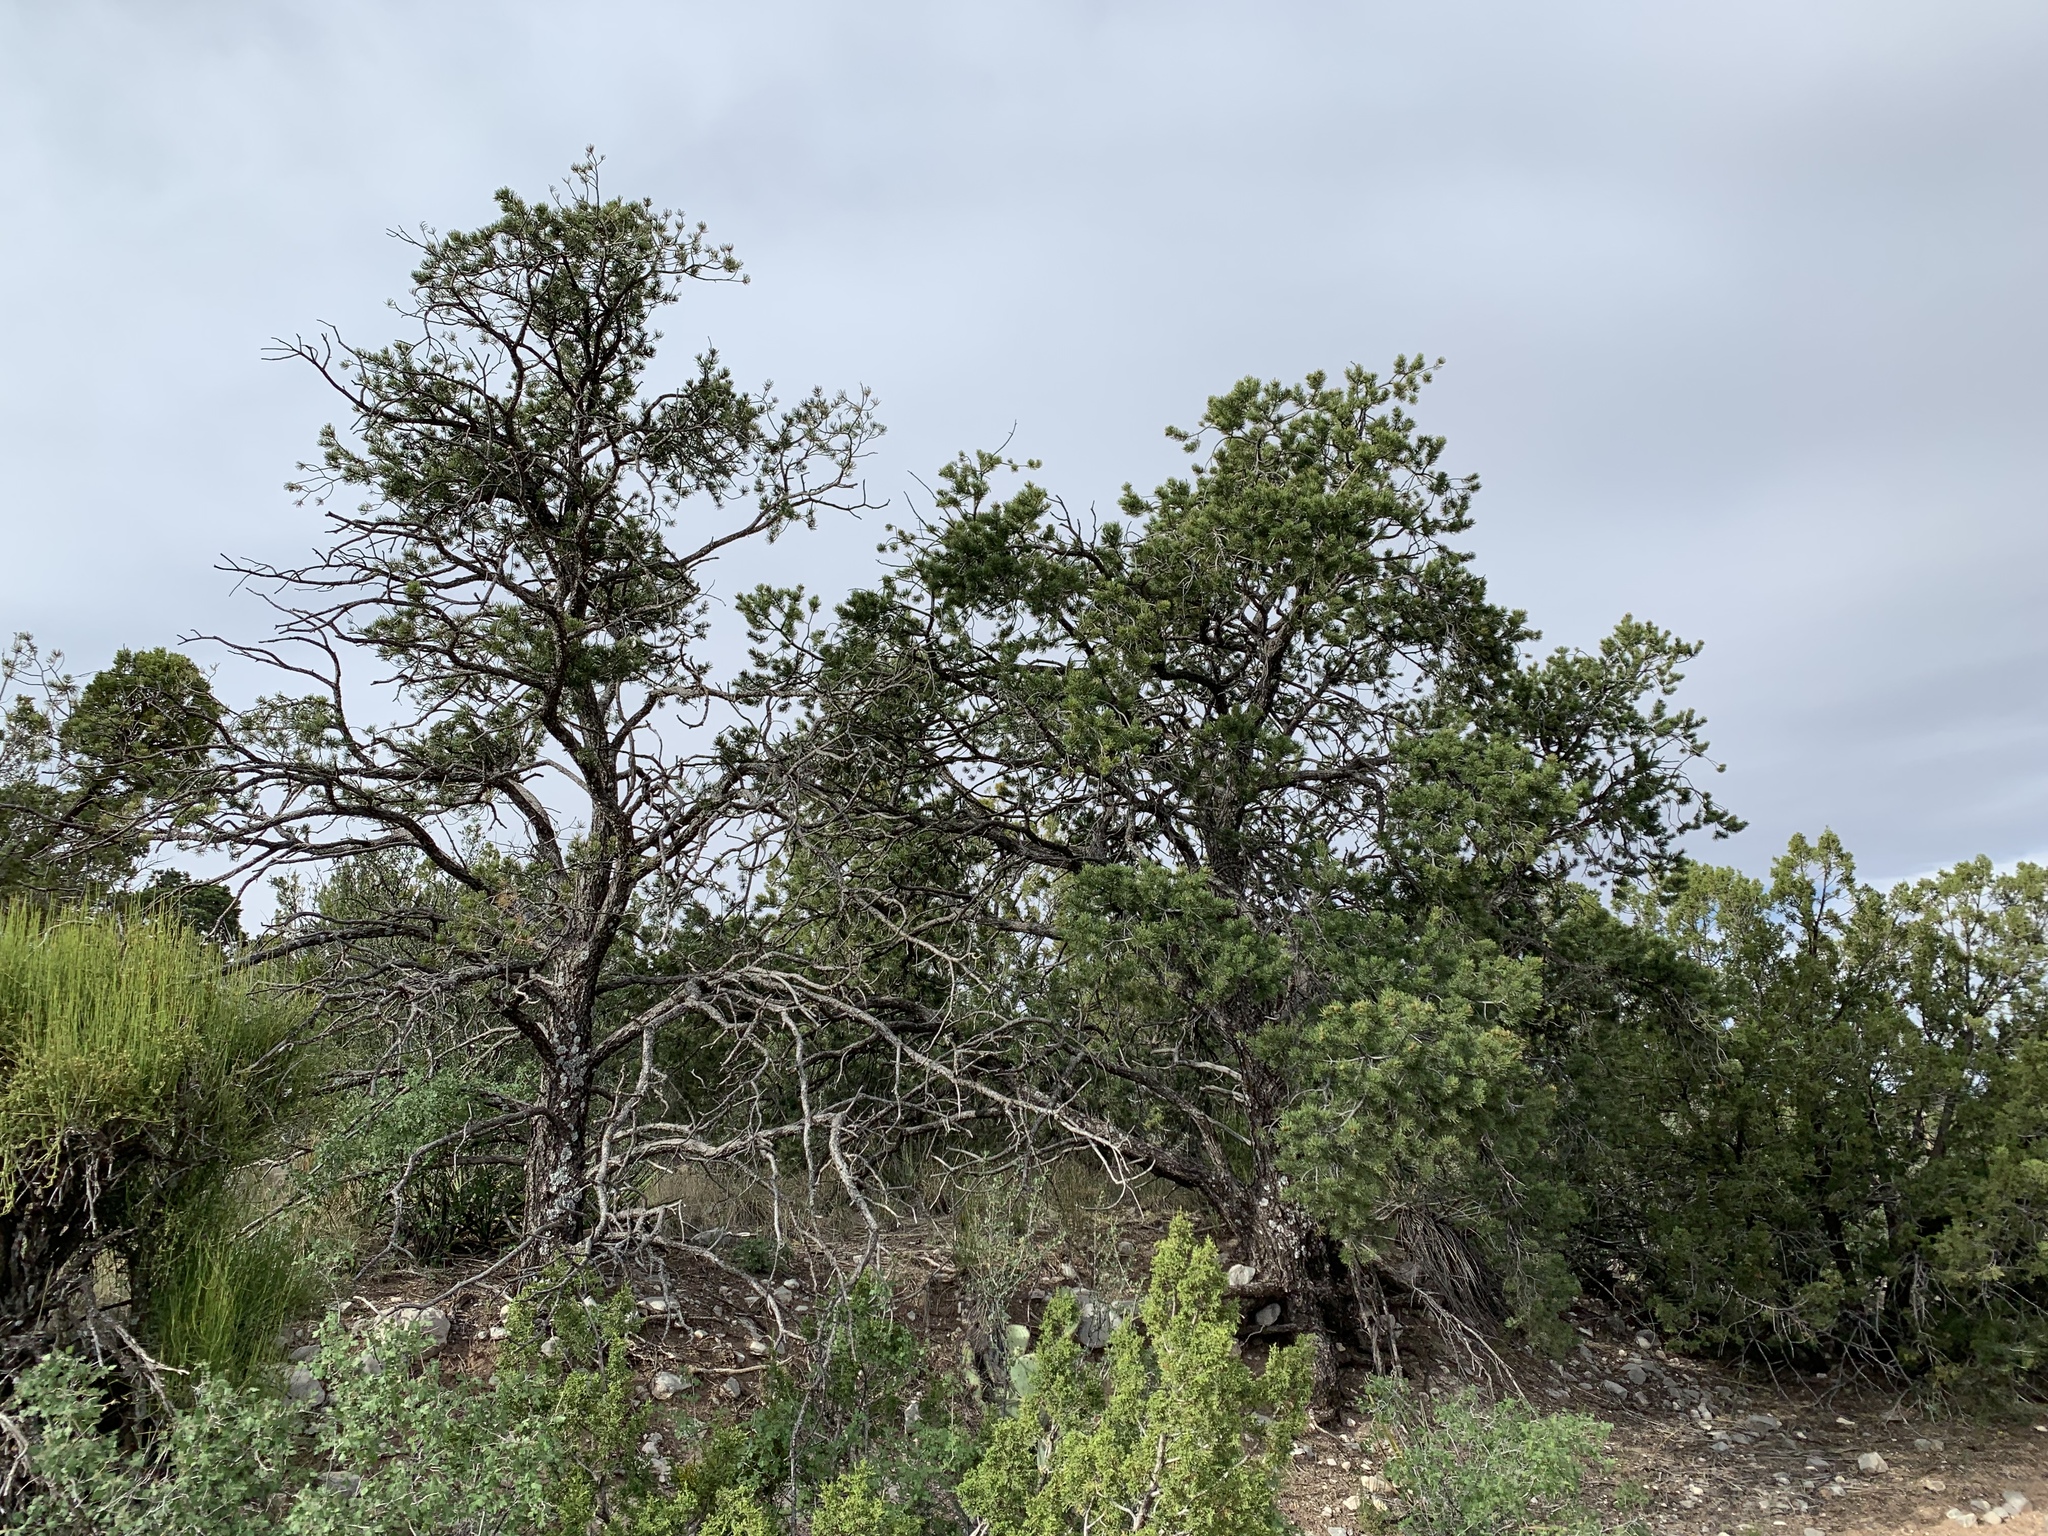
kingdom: Plantae
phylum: Tracheophyta
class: Pinopsida
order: Pinales
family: Pinaceae
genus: Pinus
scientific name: Pinus edulis
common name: Colorado pinyon
